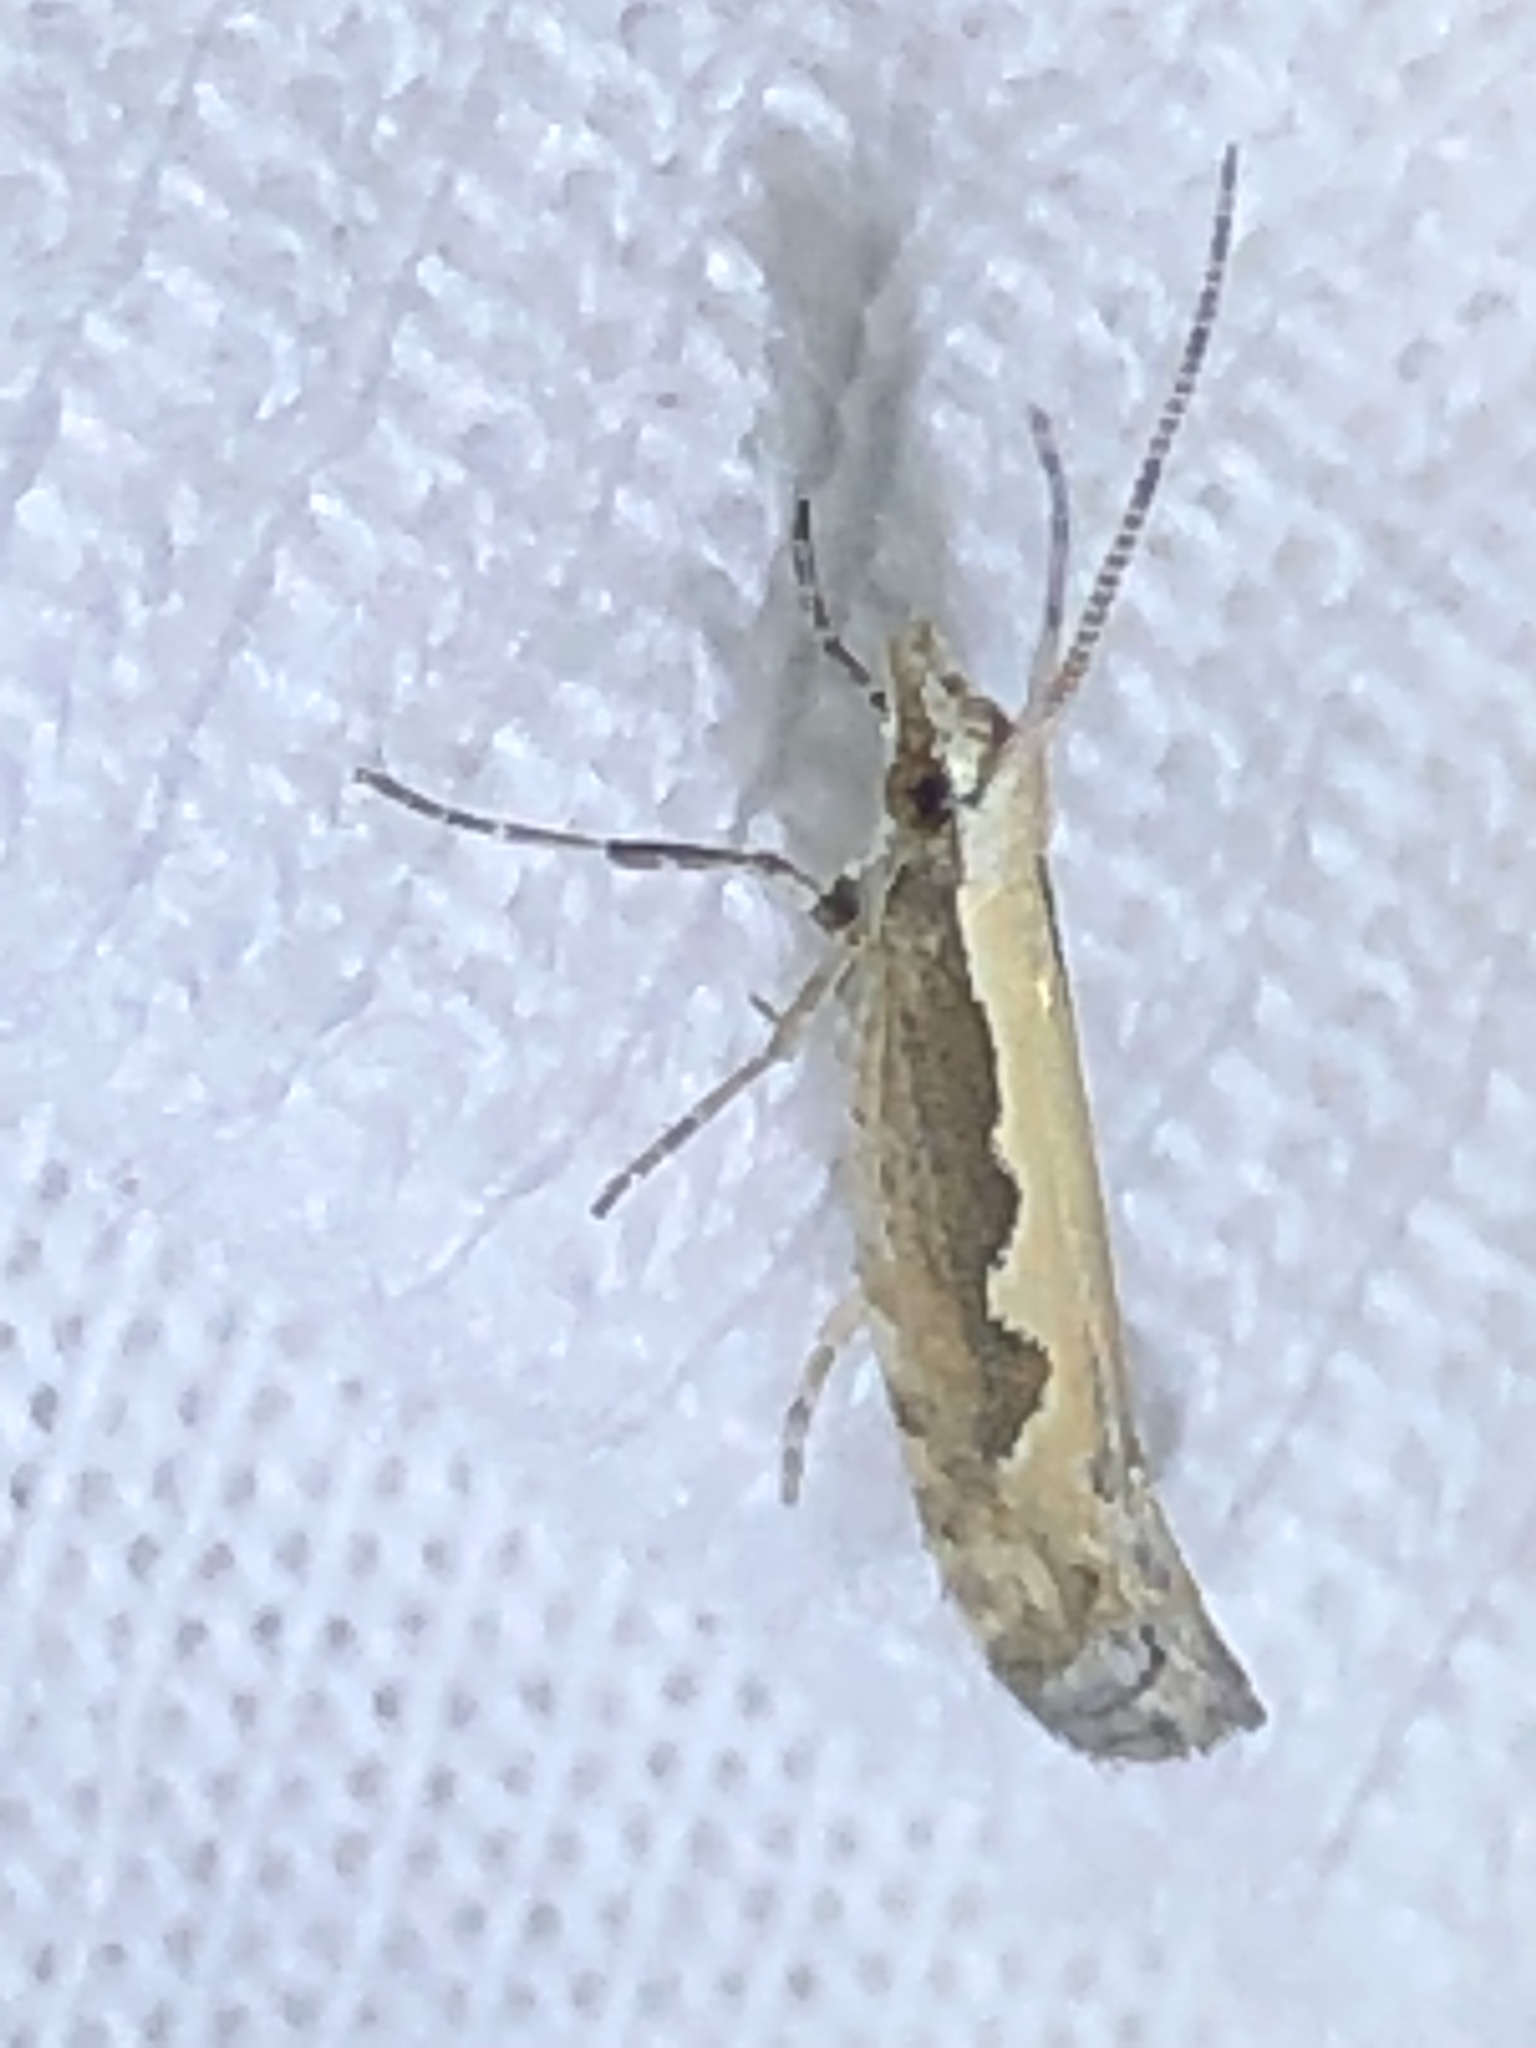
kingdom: Animalia
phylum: Arthropoda
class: Insecta
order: Lepidoptera
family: Plutellidae
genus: Plutella
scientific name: Plutella xylostella
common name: Diamond-back moth
